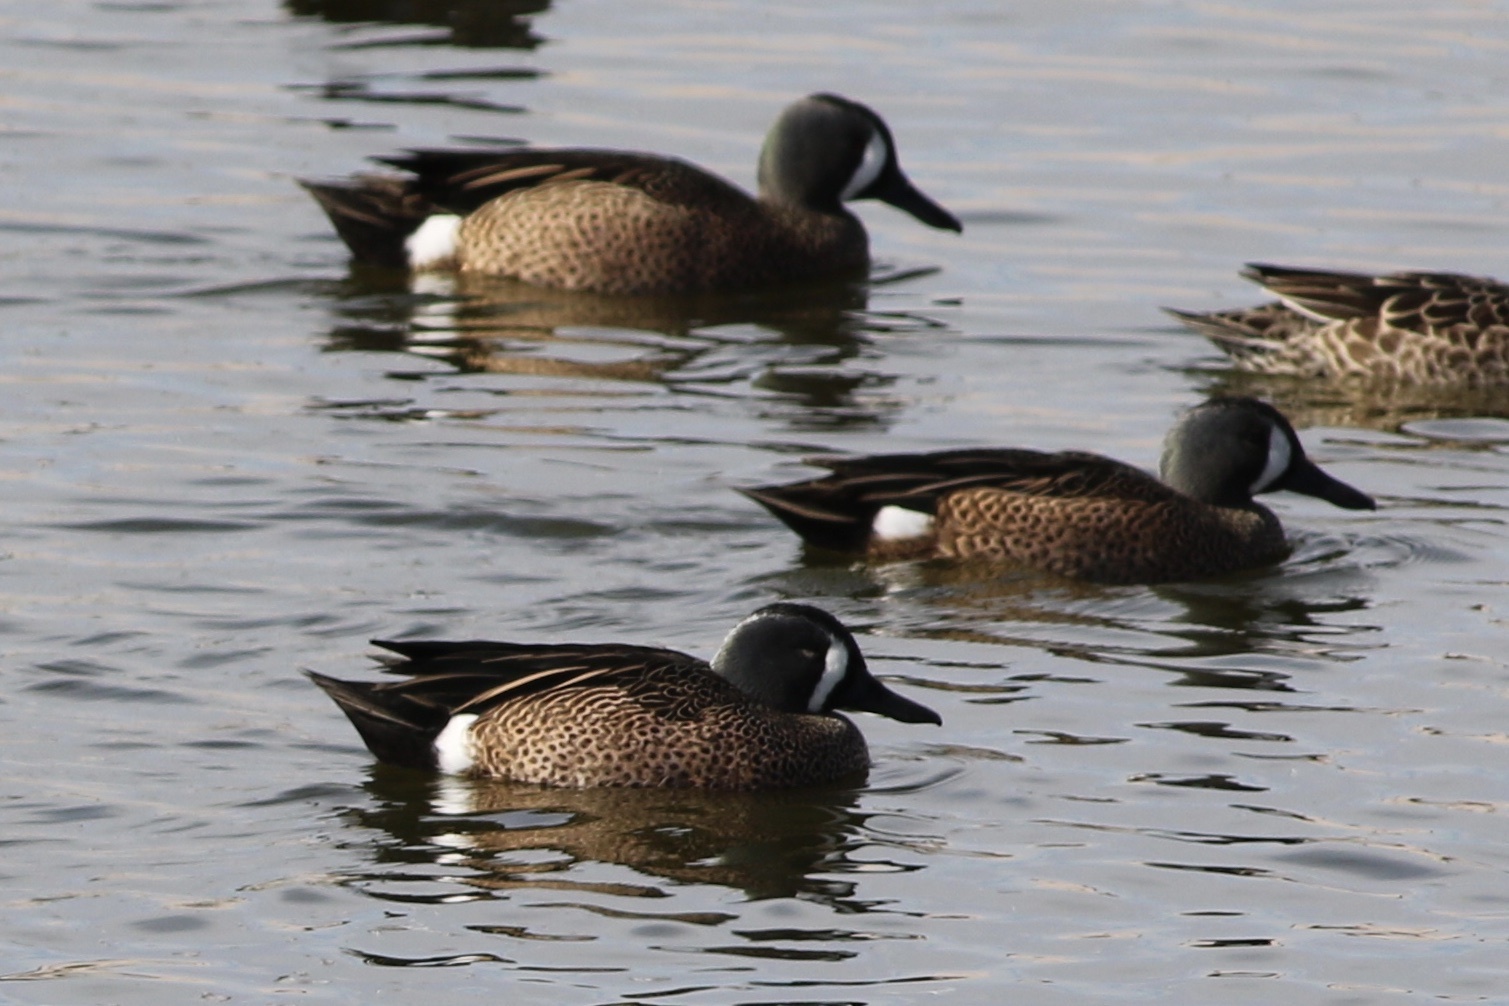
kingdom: Animalia
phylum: Chordata
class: Aves
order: Anseriformes
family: Anatidae
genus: Spatula
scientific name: Spatula discors
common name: Blue-winged teal
